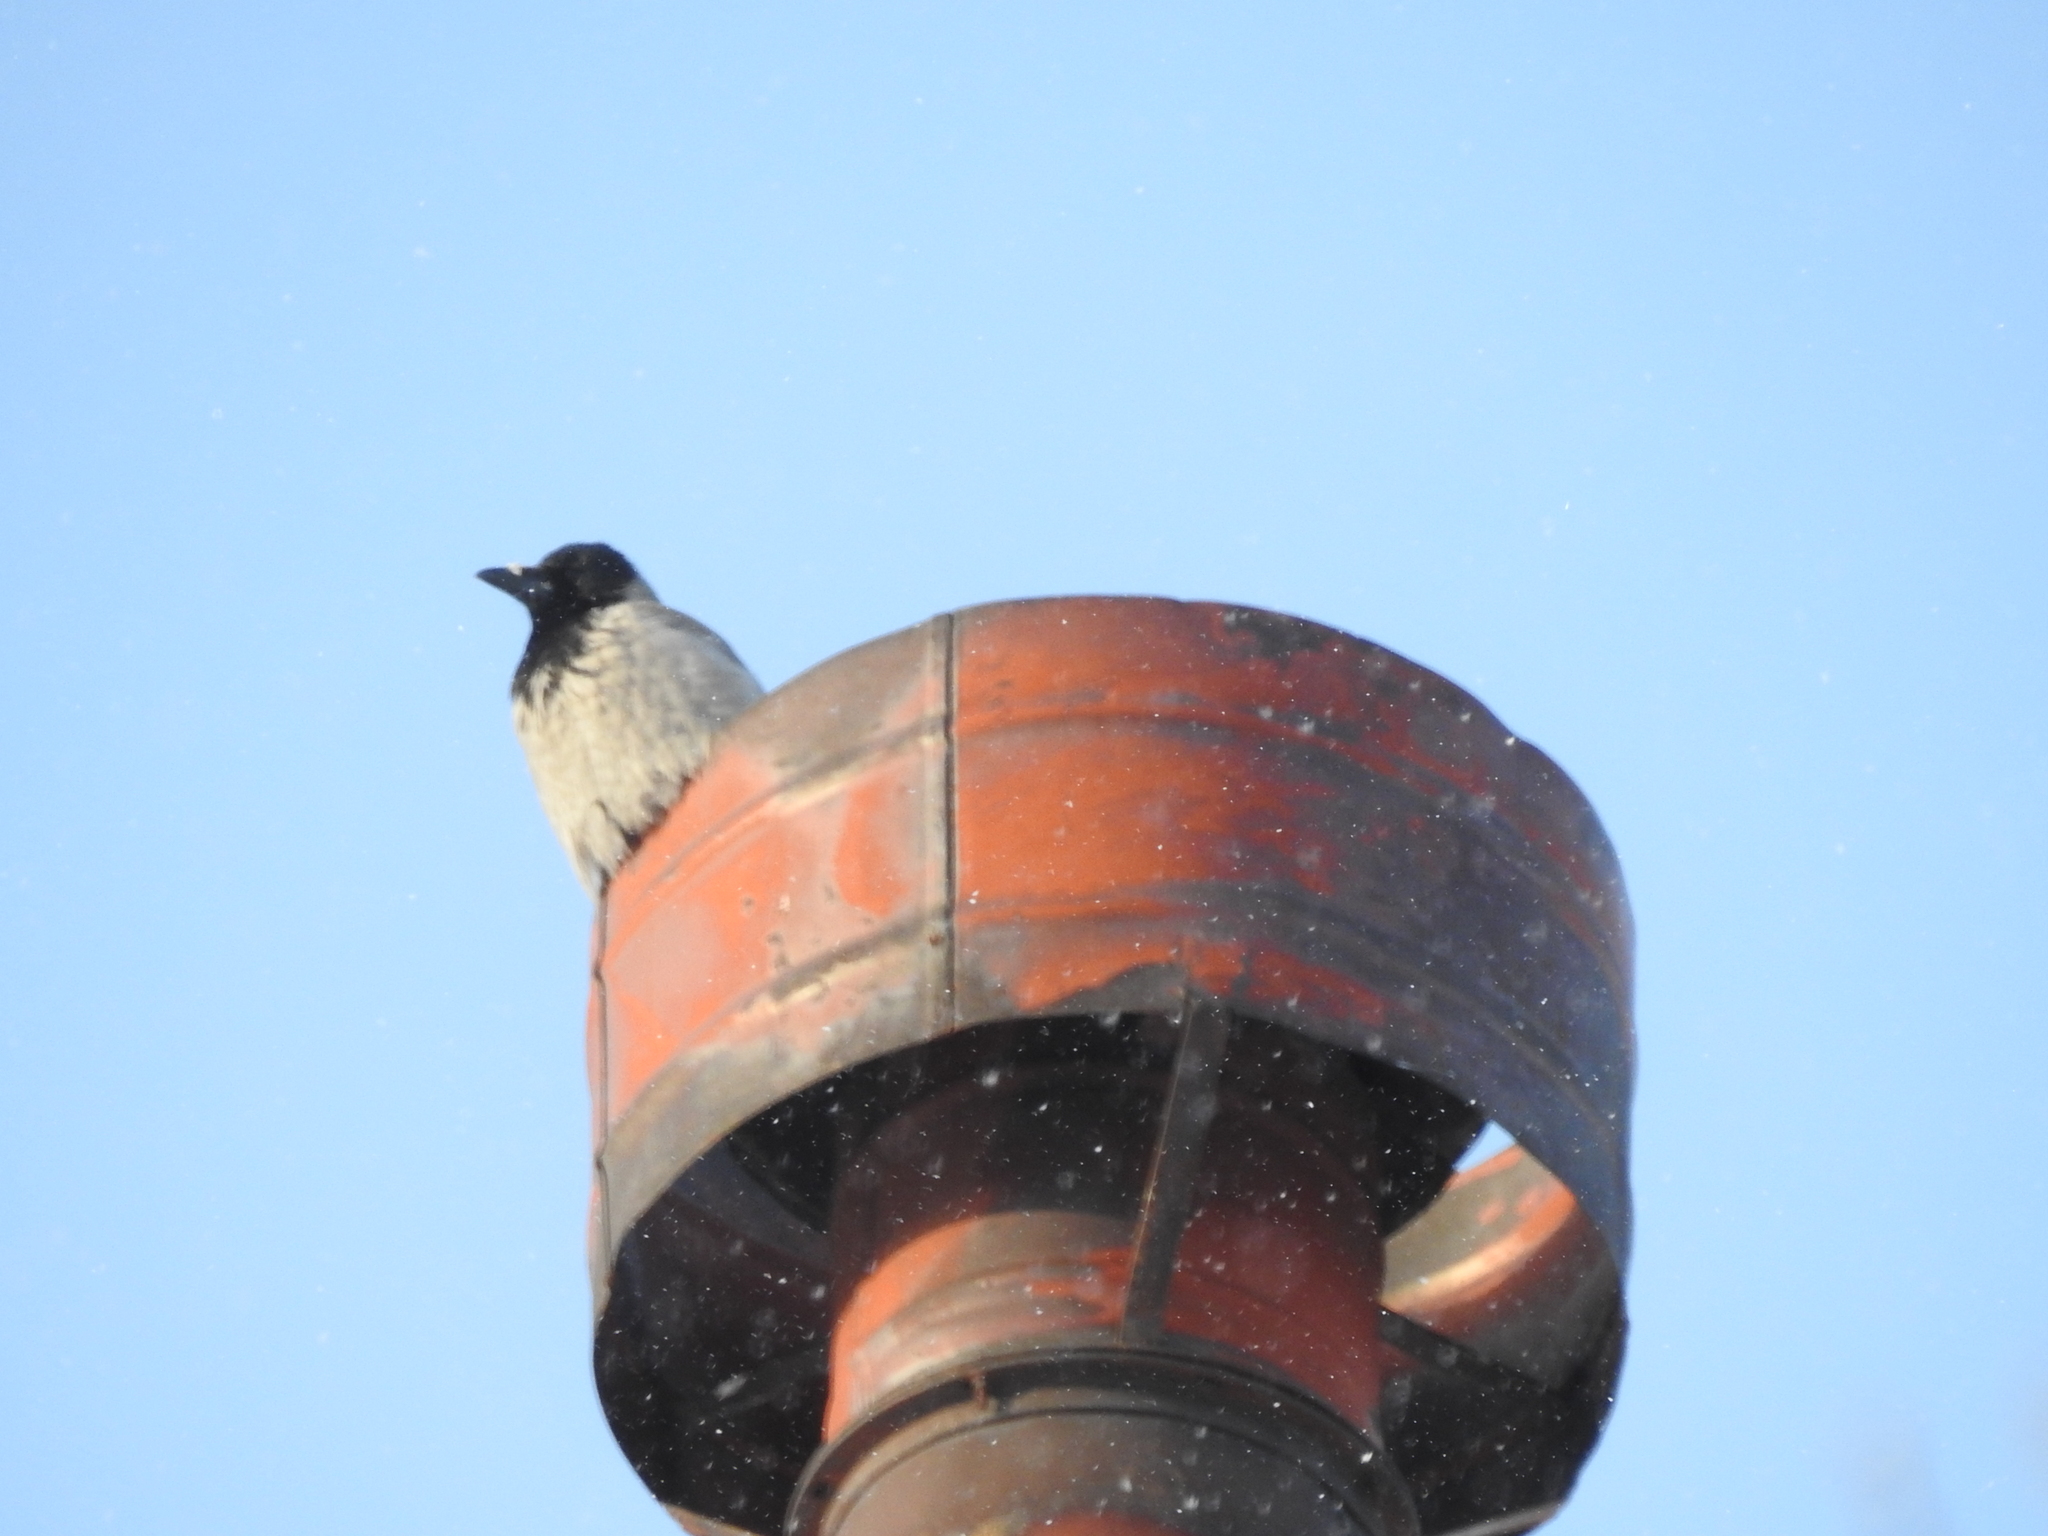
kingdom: Animalia
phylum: Chordata
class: Aves
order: Passeriformes
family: Corvidae
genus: Corvus
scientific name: Corvus cornix
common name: Hooded crow
